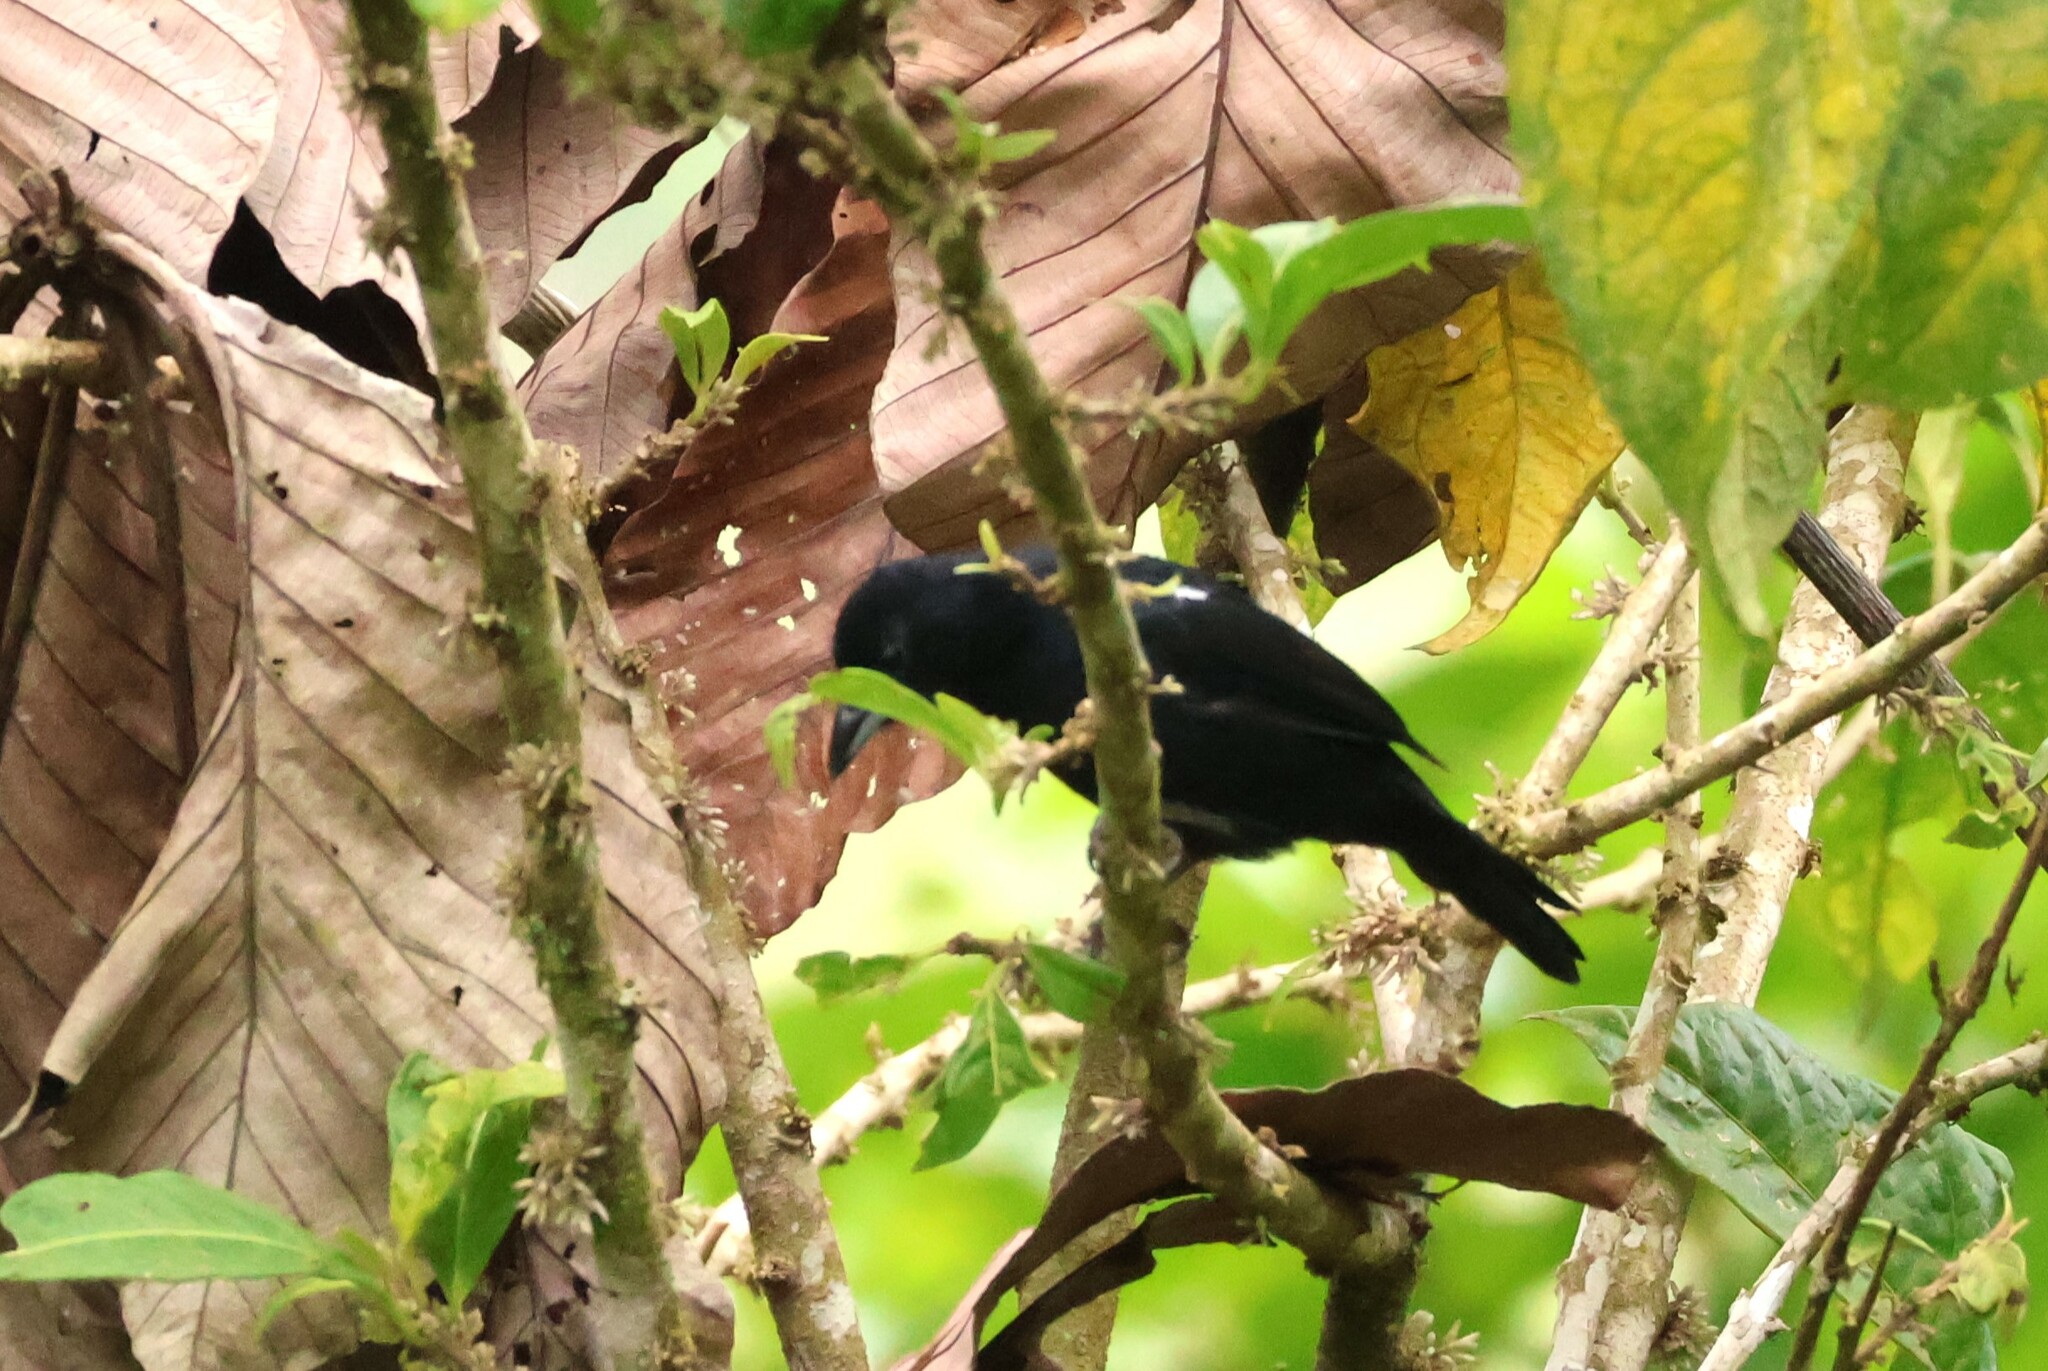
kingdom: Animalia
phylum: Chordata
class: Aves
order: Passeriformes
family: Thraupidae
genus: Tachyphonus
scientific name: Tachyphonus rufus
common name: White-lined tanager
